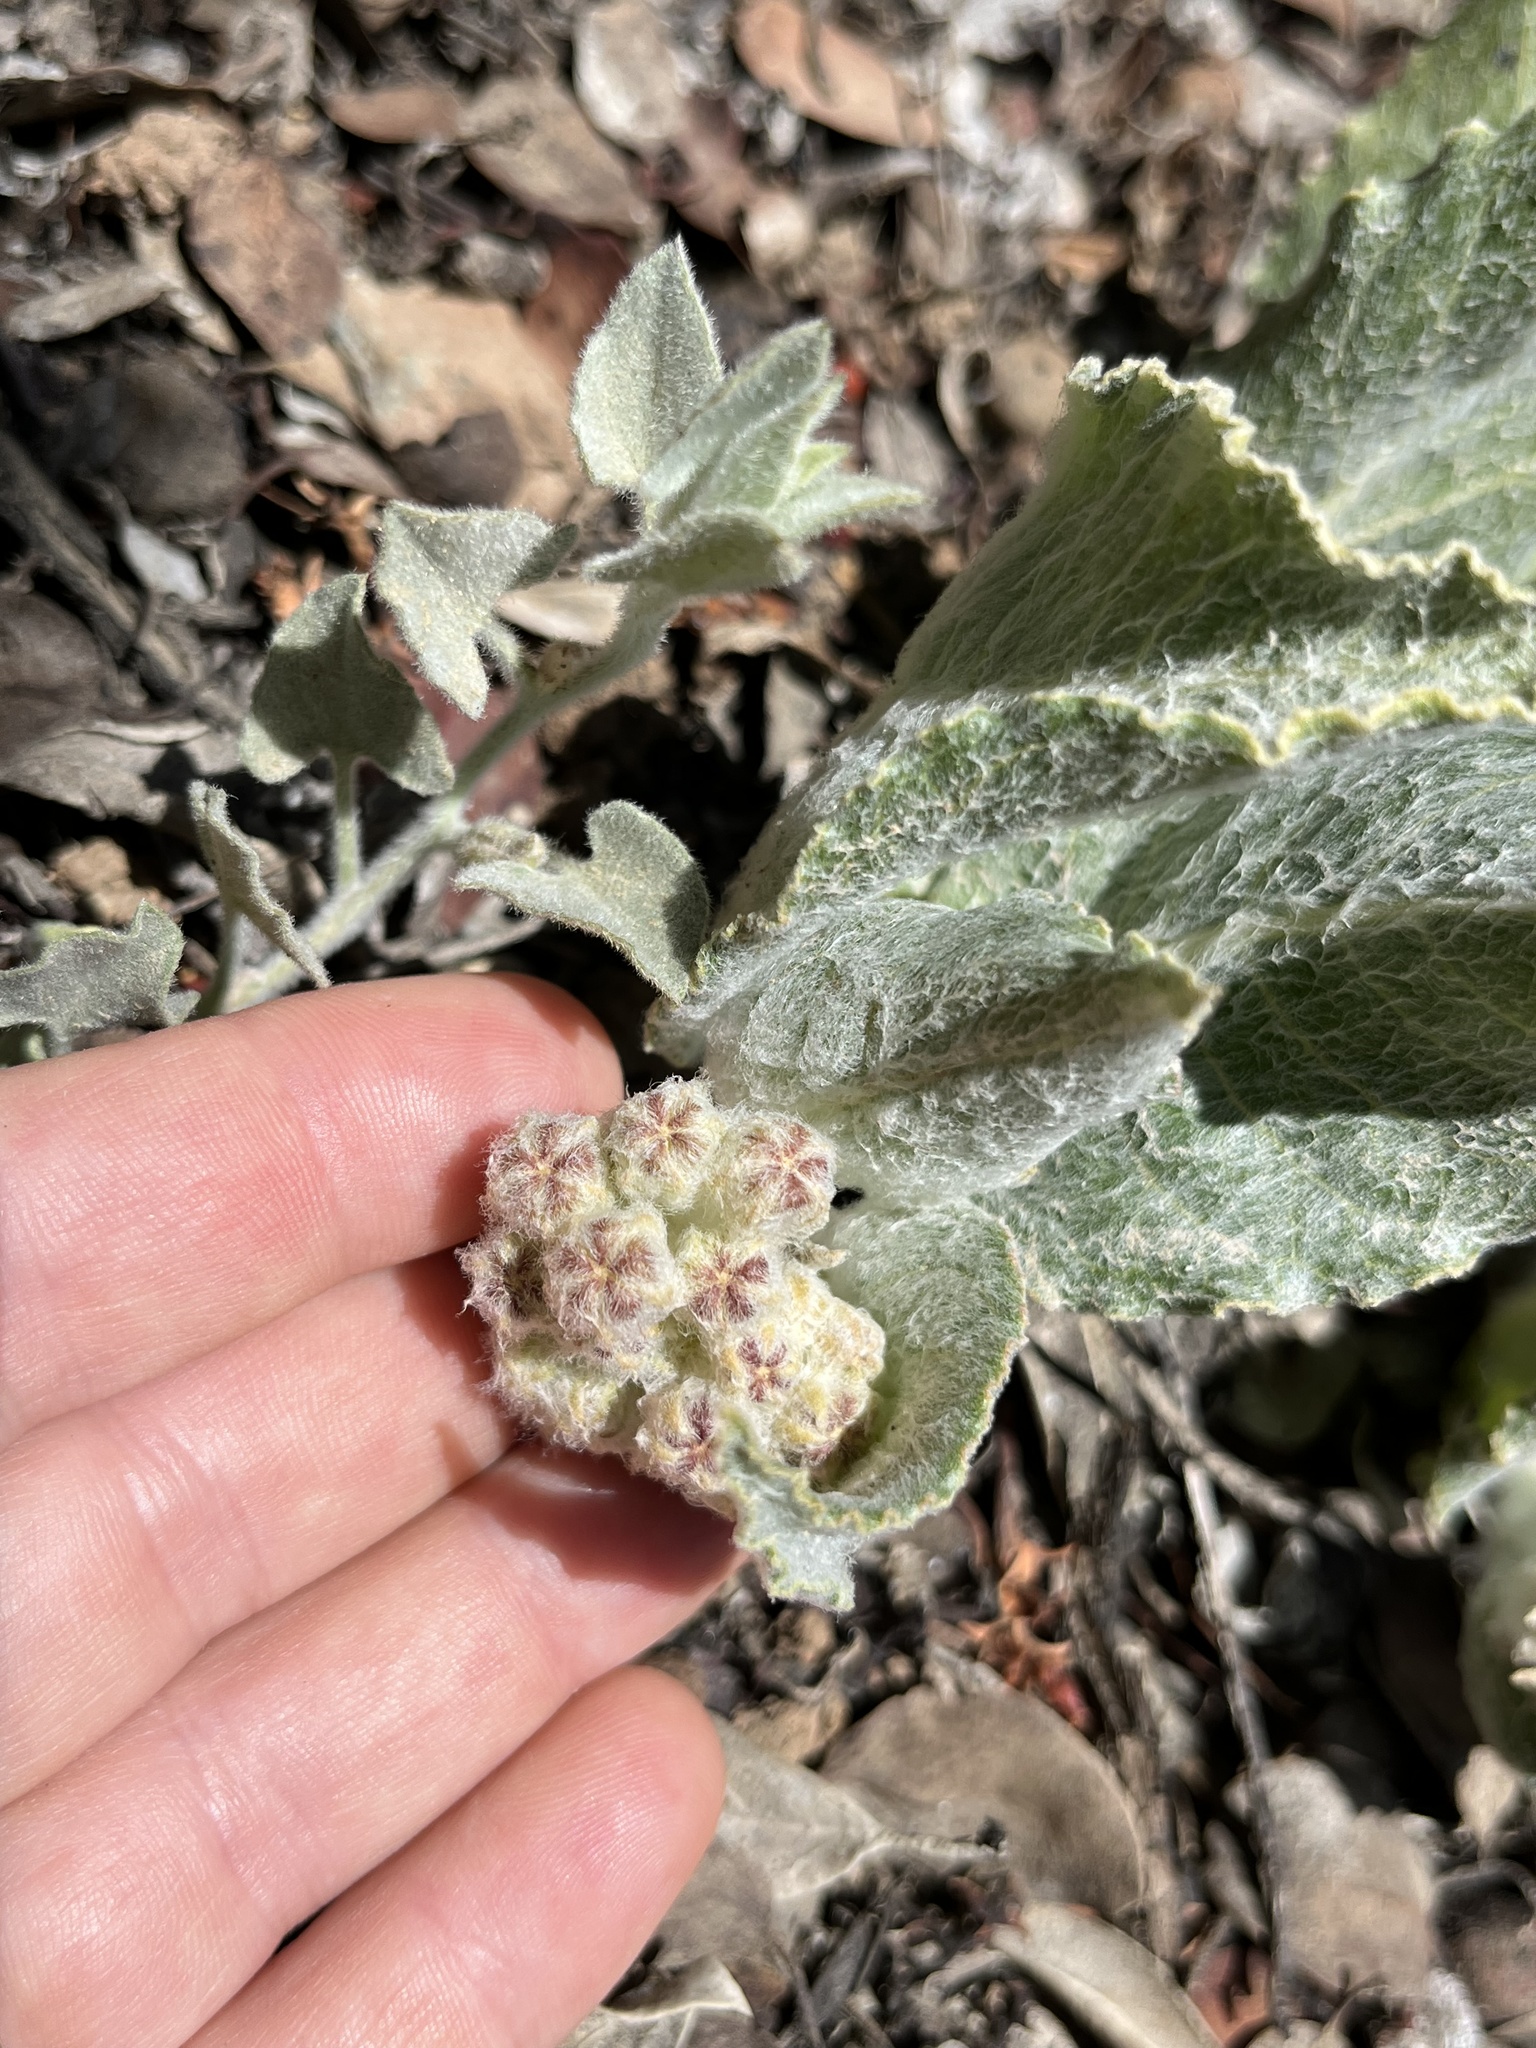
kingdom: Plantae
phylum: Tracheophyta
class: Magnoliopsida
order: Gentianales
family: Apocynaceae
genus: Asclepias
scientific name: Asclepias californica
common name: California milkweed
